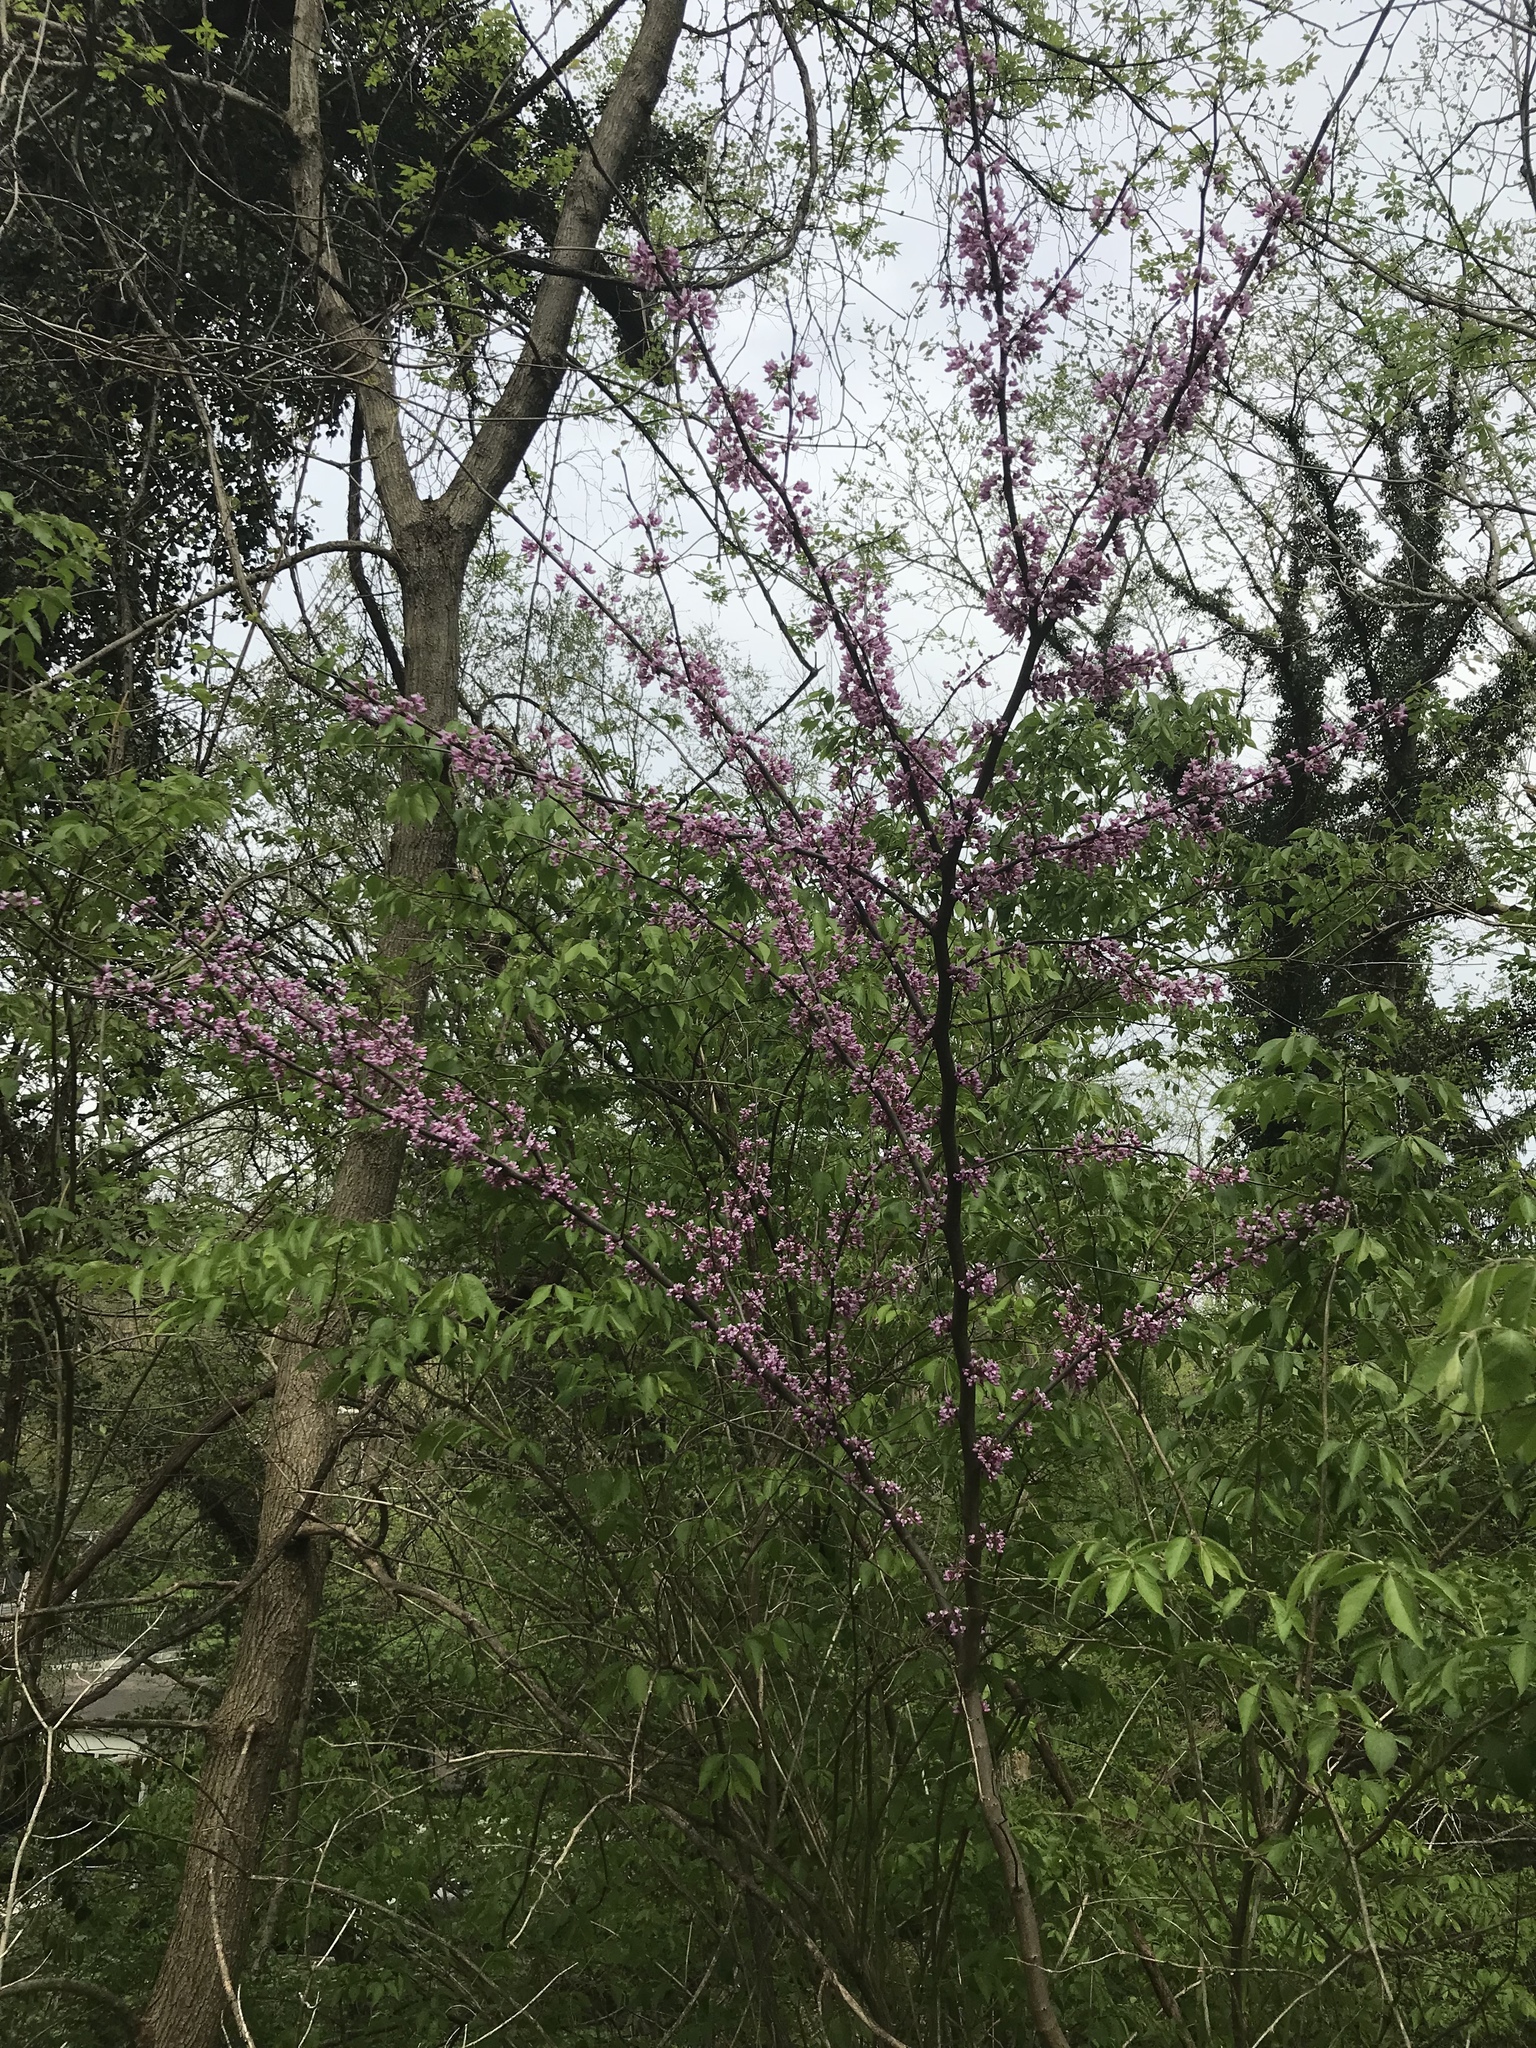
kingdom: Plantae
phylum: Tracheophyta
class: Magnoliopsida
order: Fabales
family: Fabaceae
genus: Cercis
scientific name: Cercis canadensis
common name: Eastern redbud
